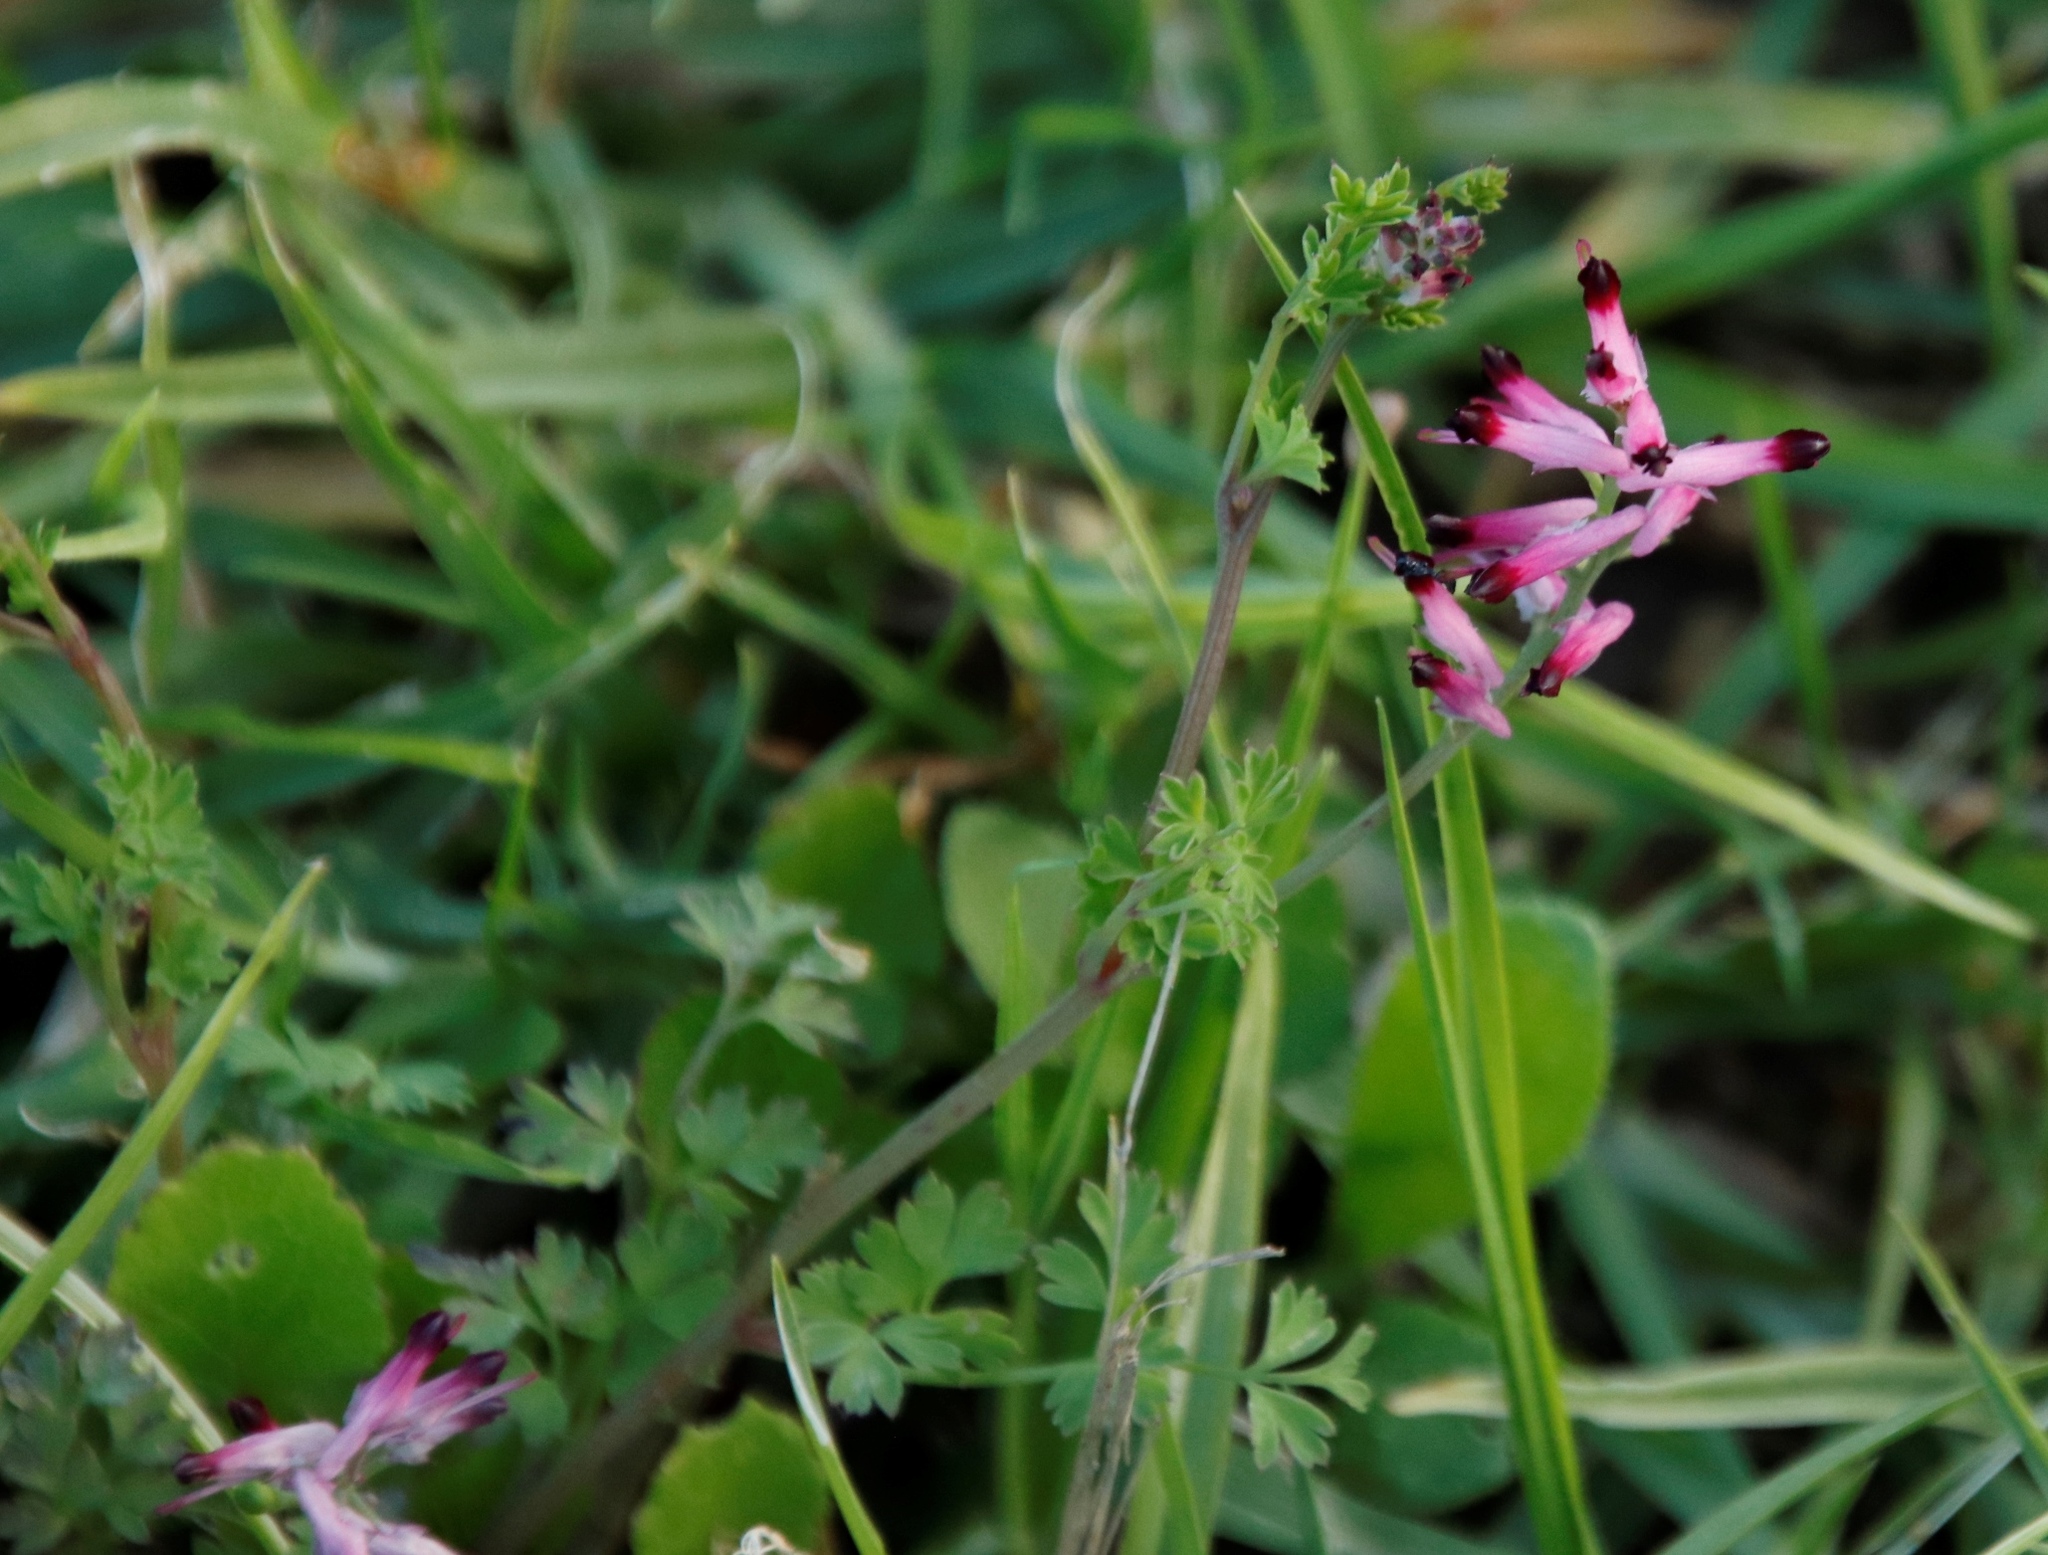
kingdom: Plantae
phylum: Tracheophyta
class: Magnoliopsida
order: Ranunculales
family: Papaveraceae
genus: Fumaria
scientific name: Fumaria muralis
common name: Common ramping-fumitory
